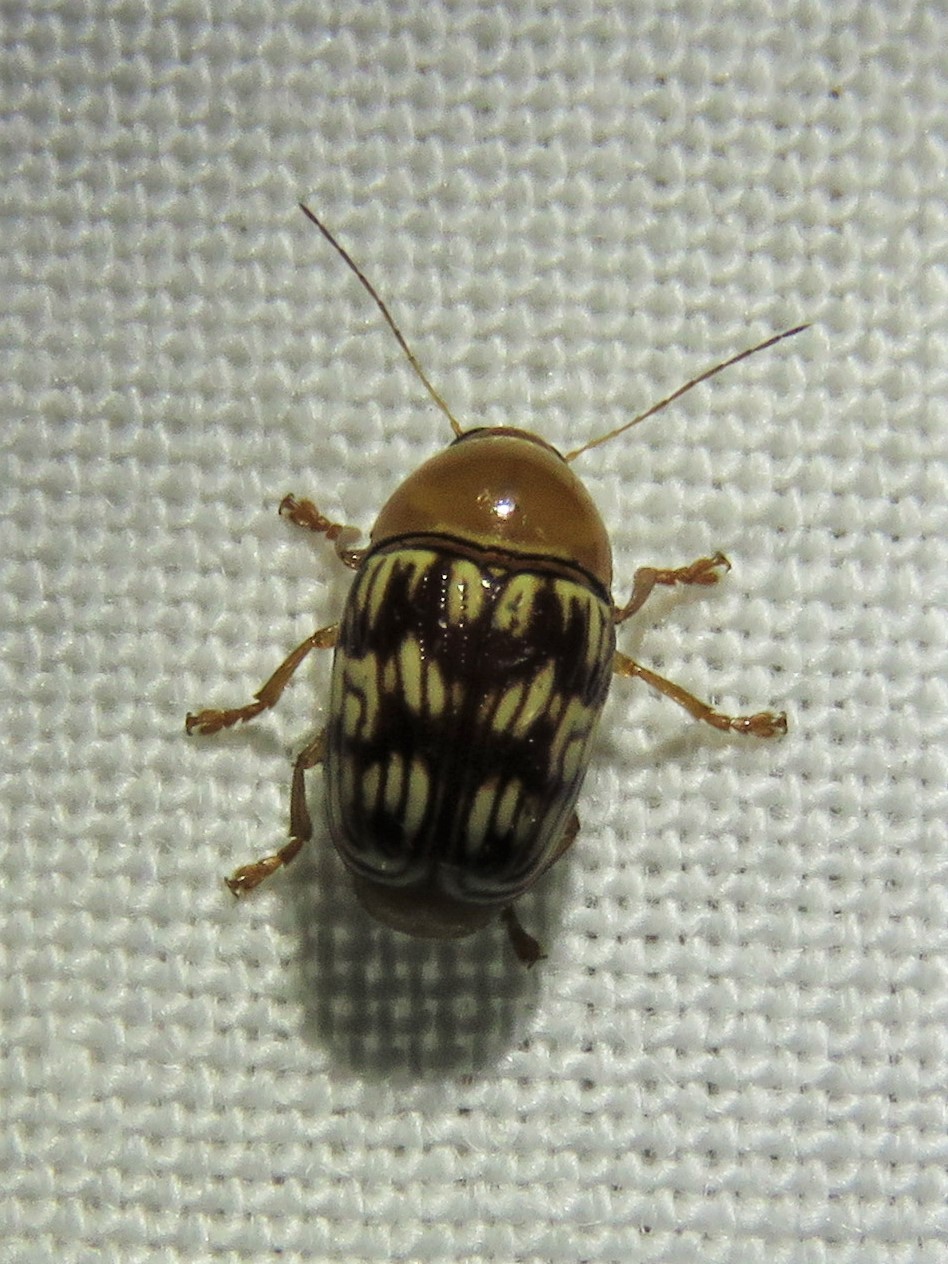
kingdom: Animalia
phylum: Arthropoda
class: Insecta
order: Coleoptera
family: Chrysomelidae
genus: Cryptocephalus
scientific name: Cryptocephalus fulguratus
